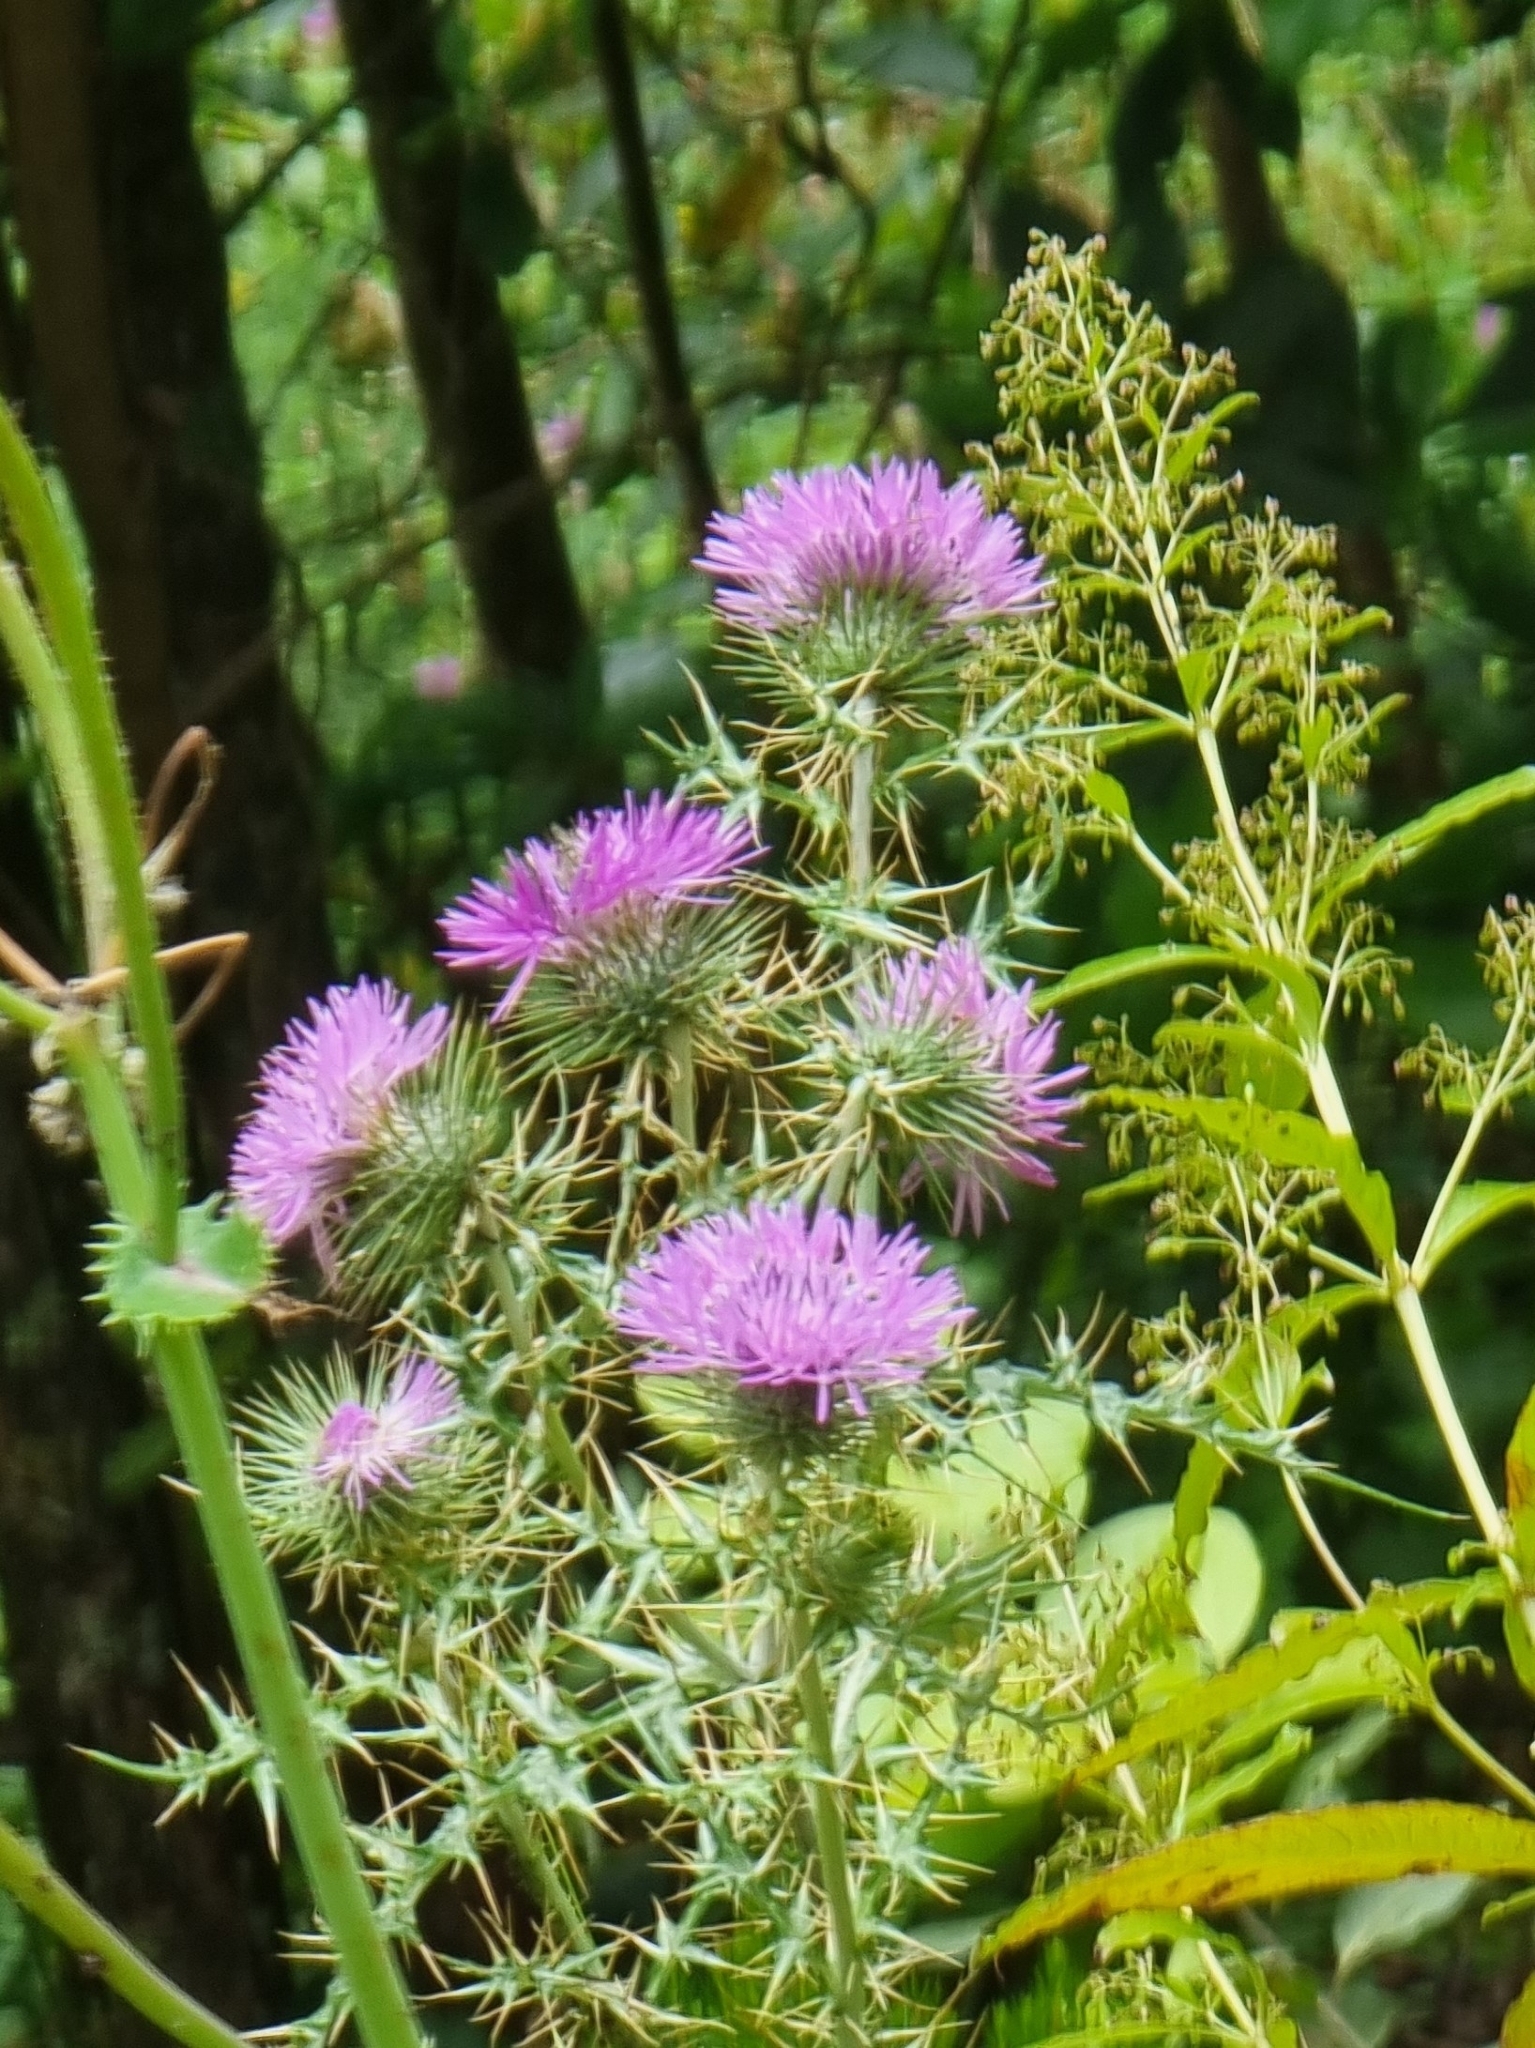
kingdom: Plantae
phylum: Tracheophyta
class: Magnoliopsida
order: Asterales
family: Asteraceae
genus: Galactites
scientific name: Galactites tomentosa
